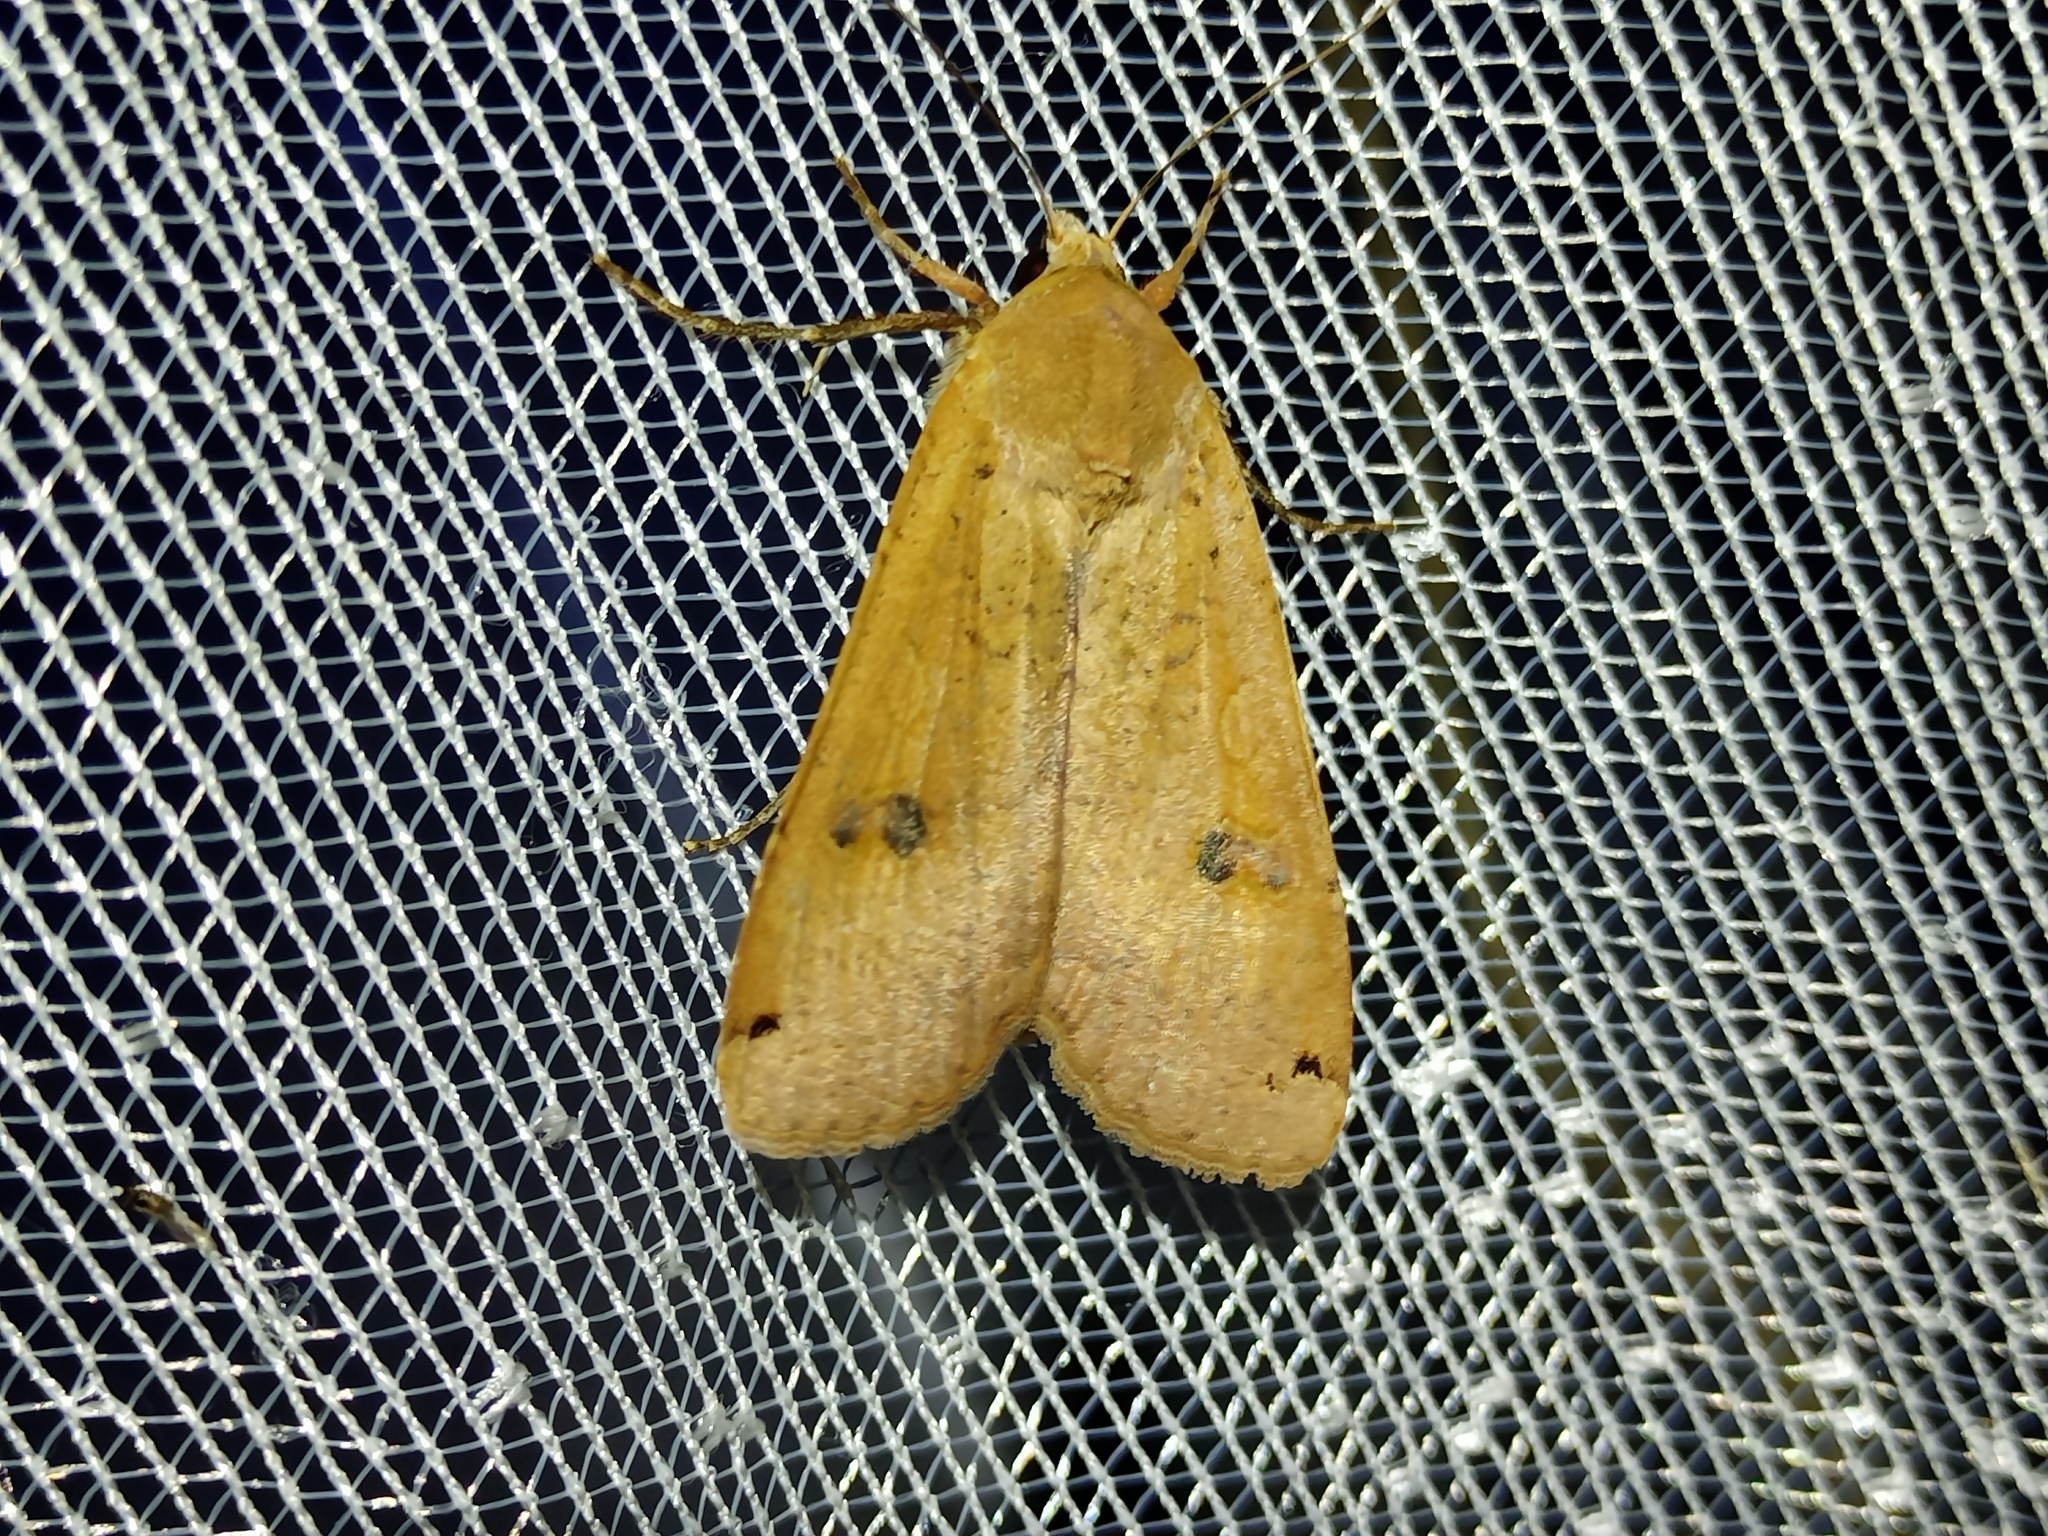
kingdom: Animalia
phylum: Arthropoda
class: Insecta
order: Lepidoptera
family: Noctuidae
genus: Noctua
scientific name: Noctua pronuba
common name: Large yellow underwing
